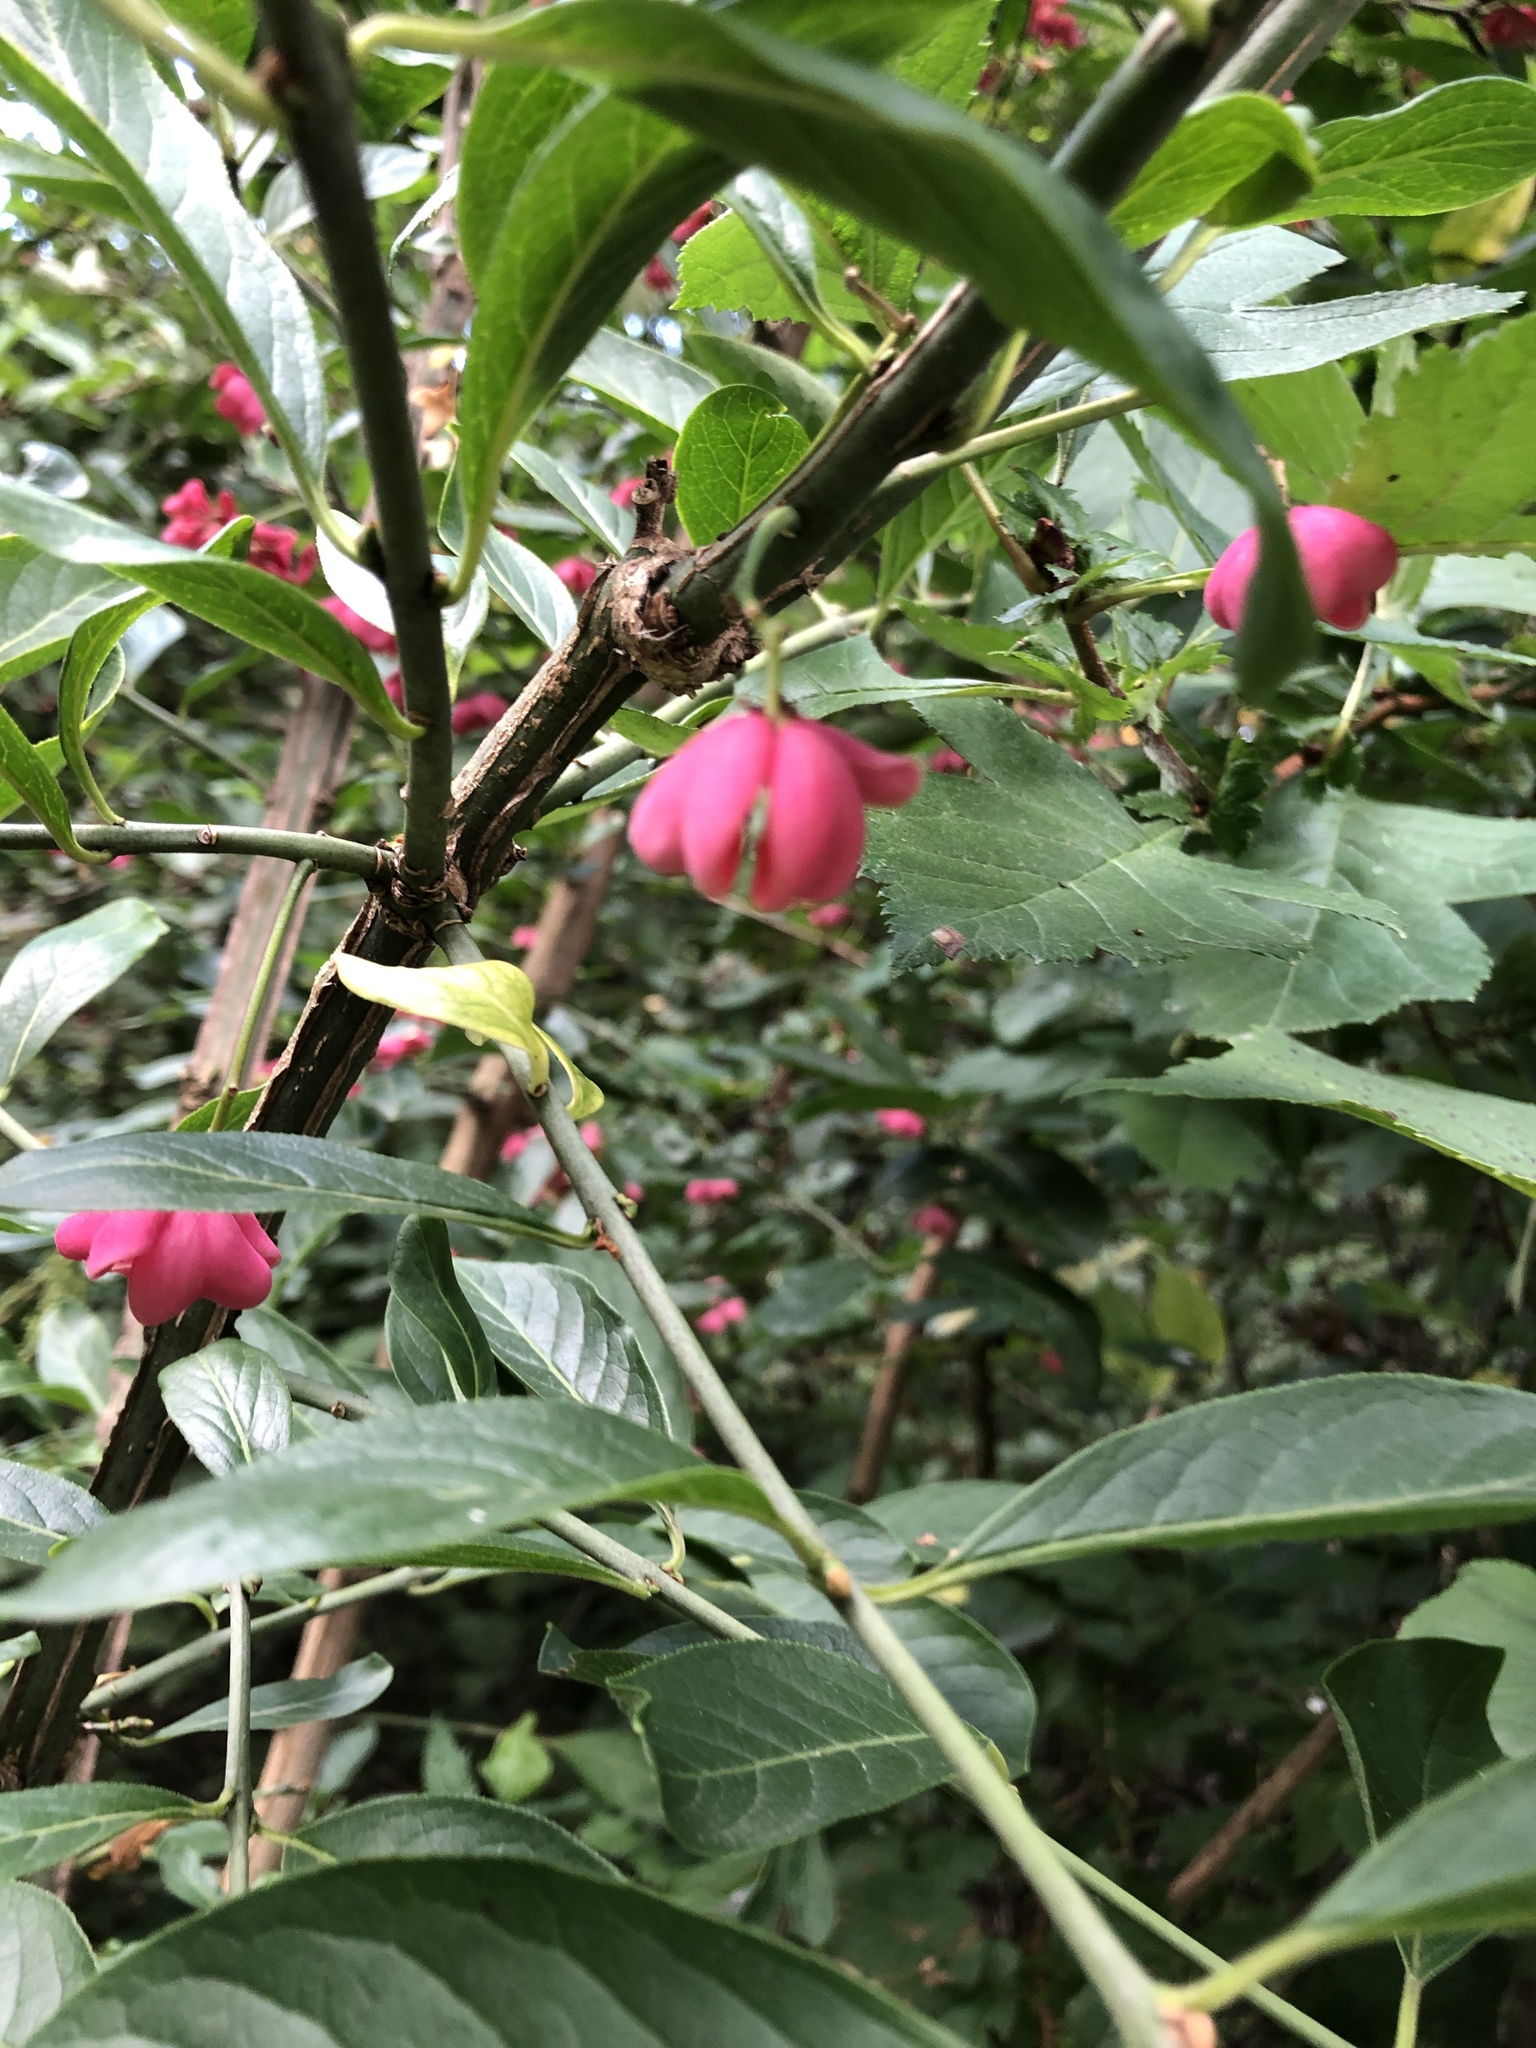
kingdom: Plantae
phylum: Tracheophyta
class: Magnoliopsida
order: Celastrales
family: Celastraceae
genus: Euonymus
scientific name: Euonymus europaeus
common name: Spindle
